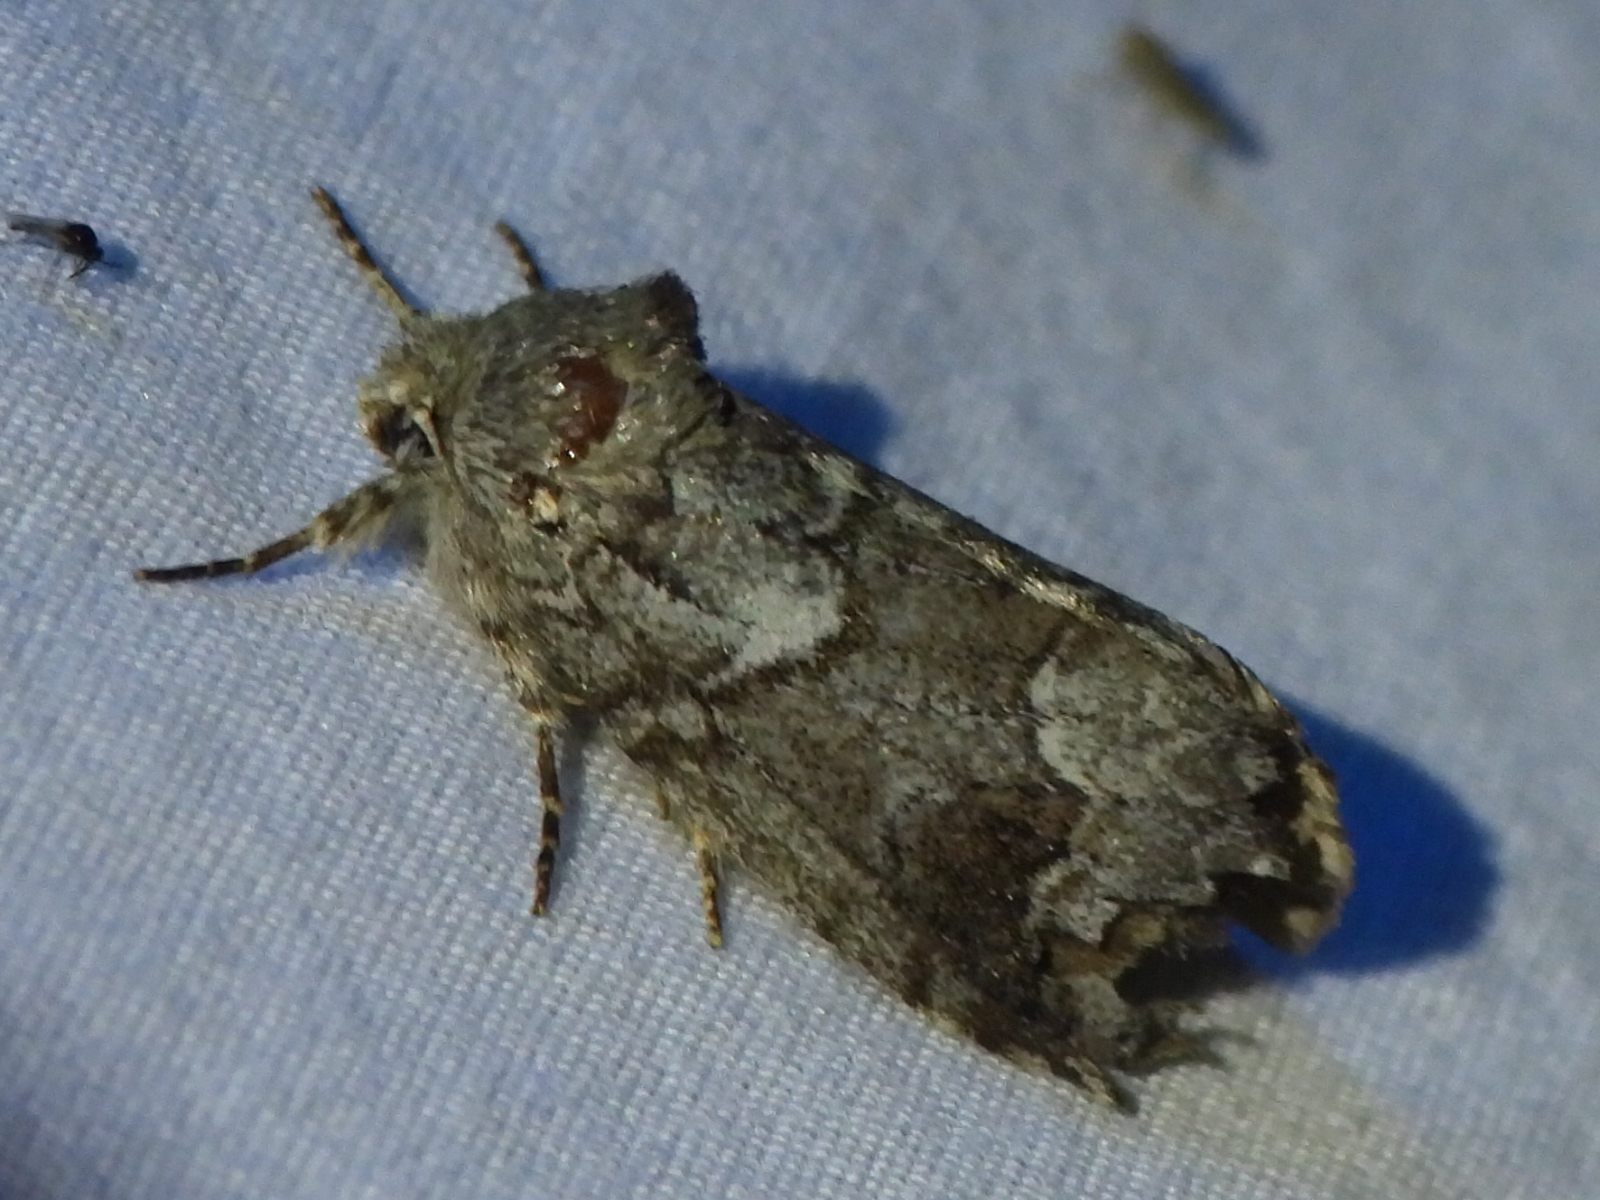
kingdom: Animalia
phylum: Arthropoda
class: Insecta
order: Lepidoptera
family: Notodontidae
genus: Lochmaeus
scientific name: Lochmaeus bilineata
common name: Double-lined prominent
